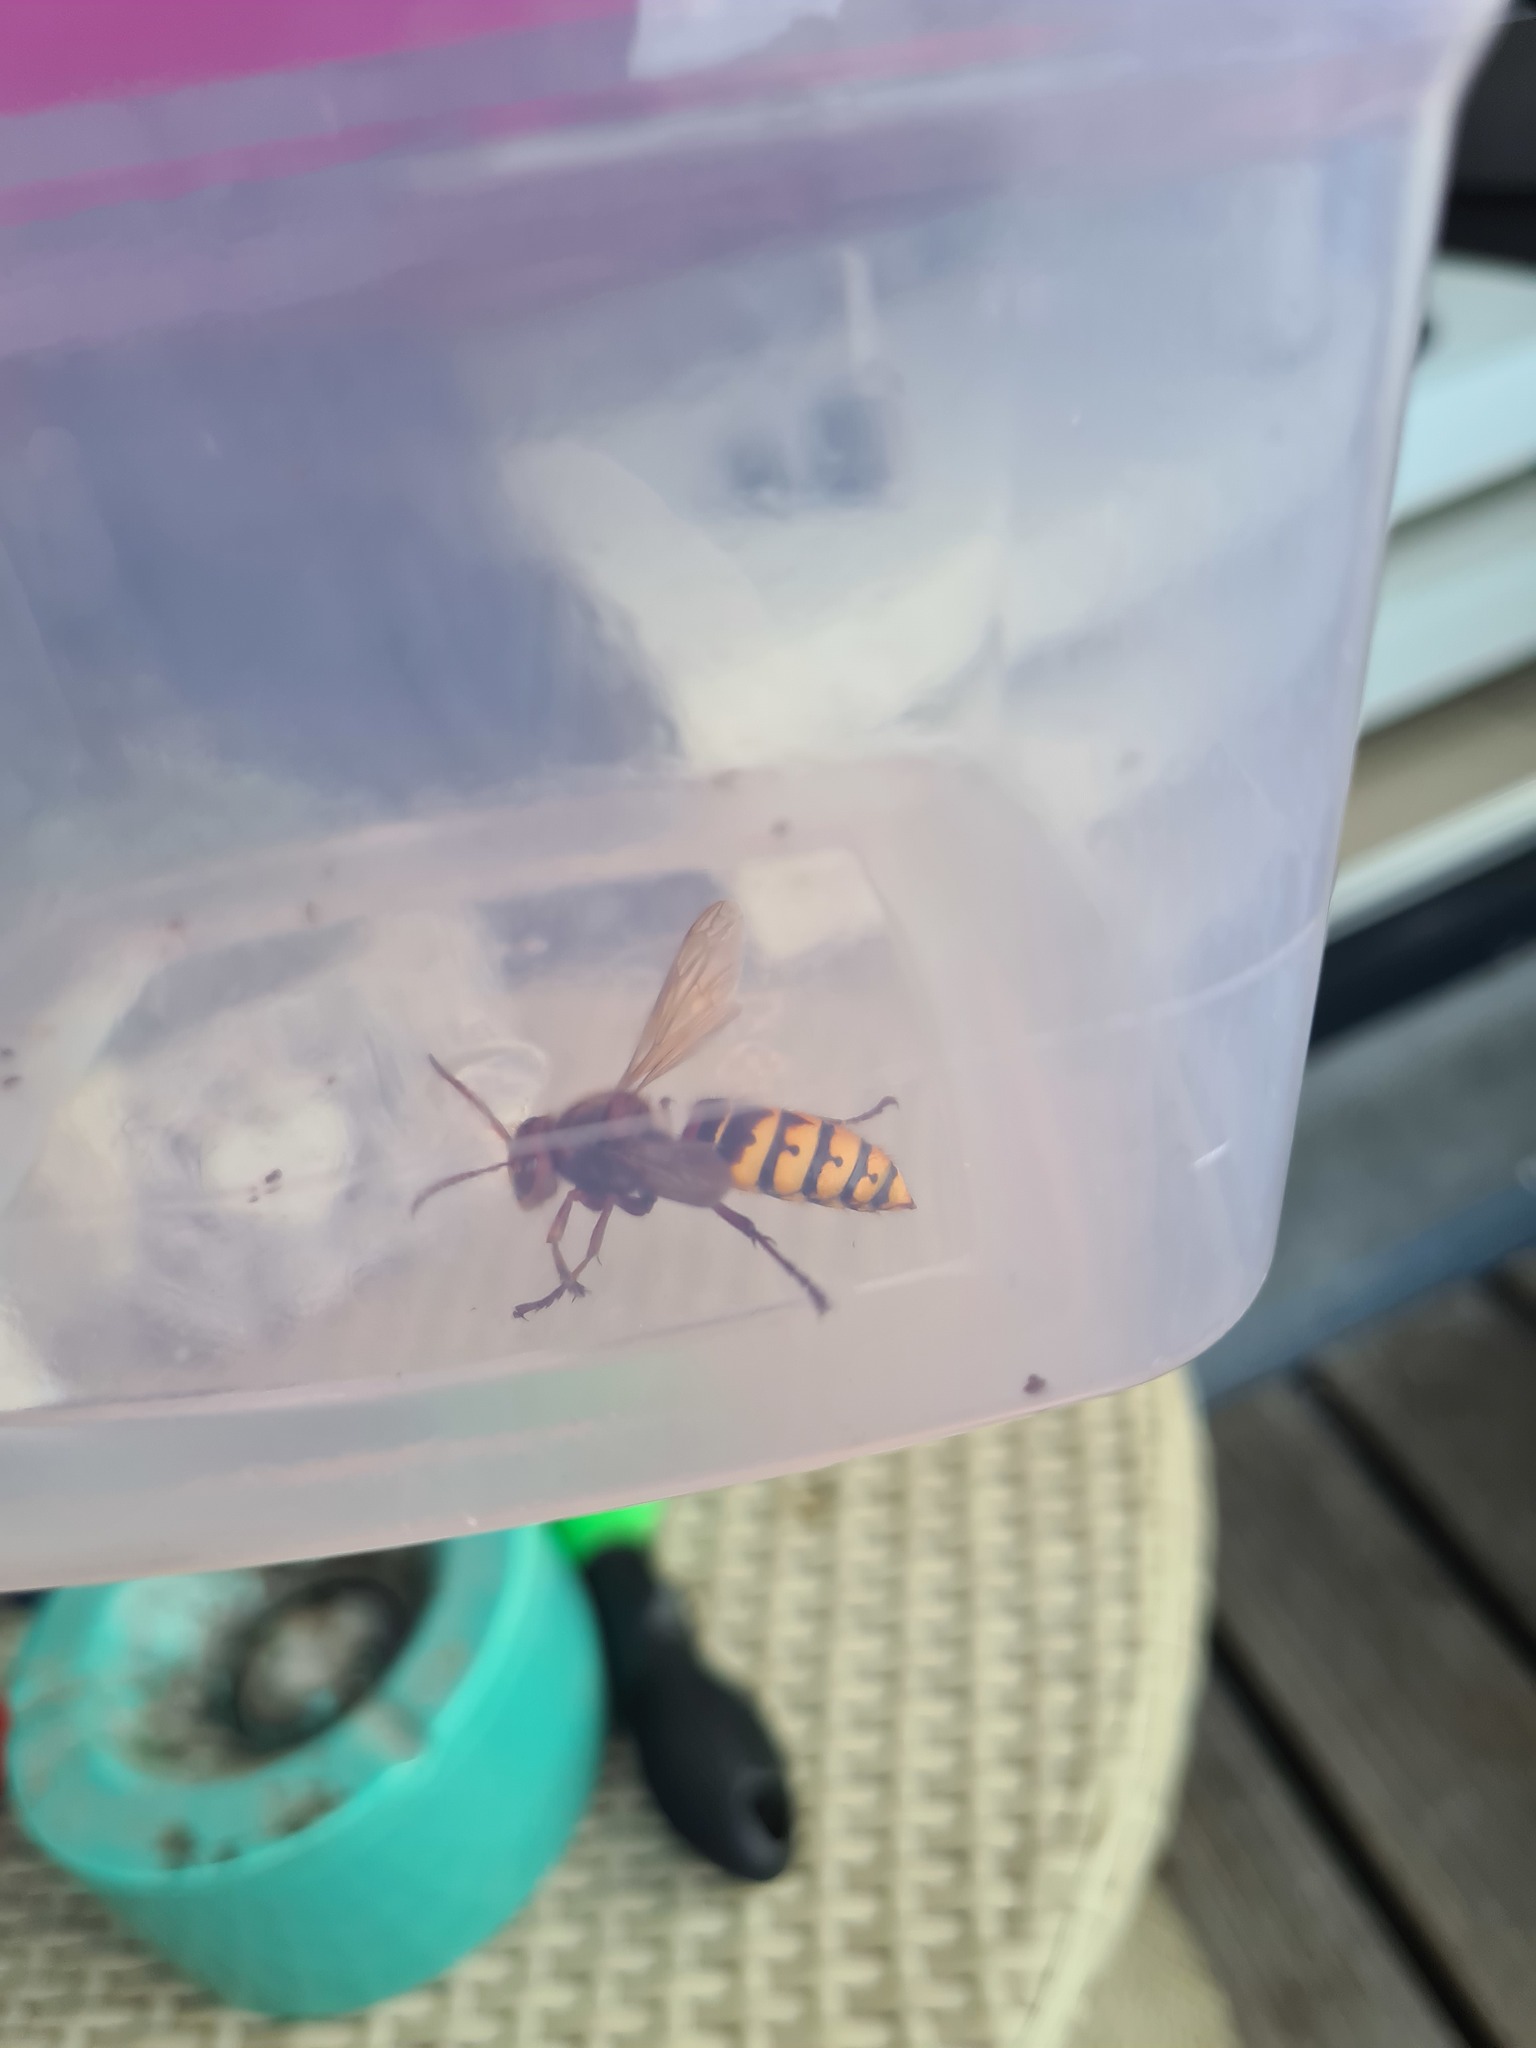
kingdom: Animalia
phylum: Arthropoda
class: Insecta
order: Hymenoptera
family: Vespidae
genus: Vespa
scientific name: Vespa crabro
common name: Hornet
